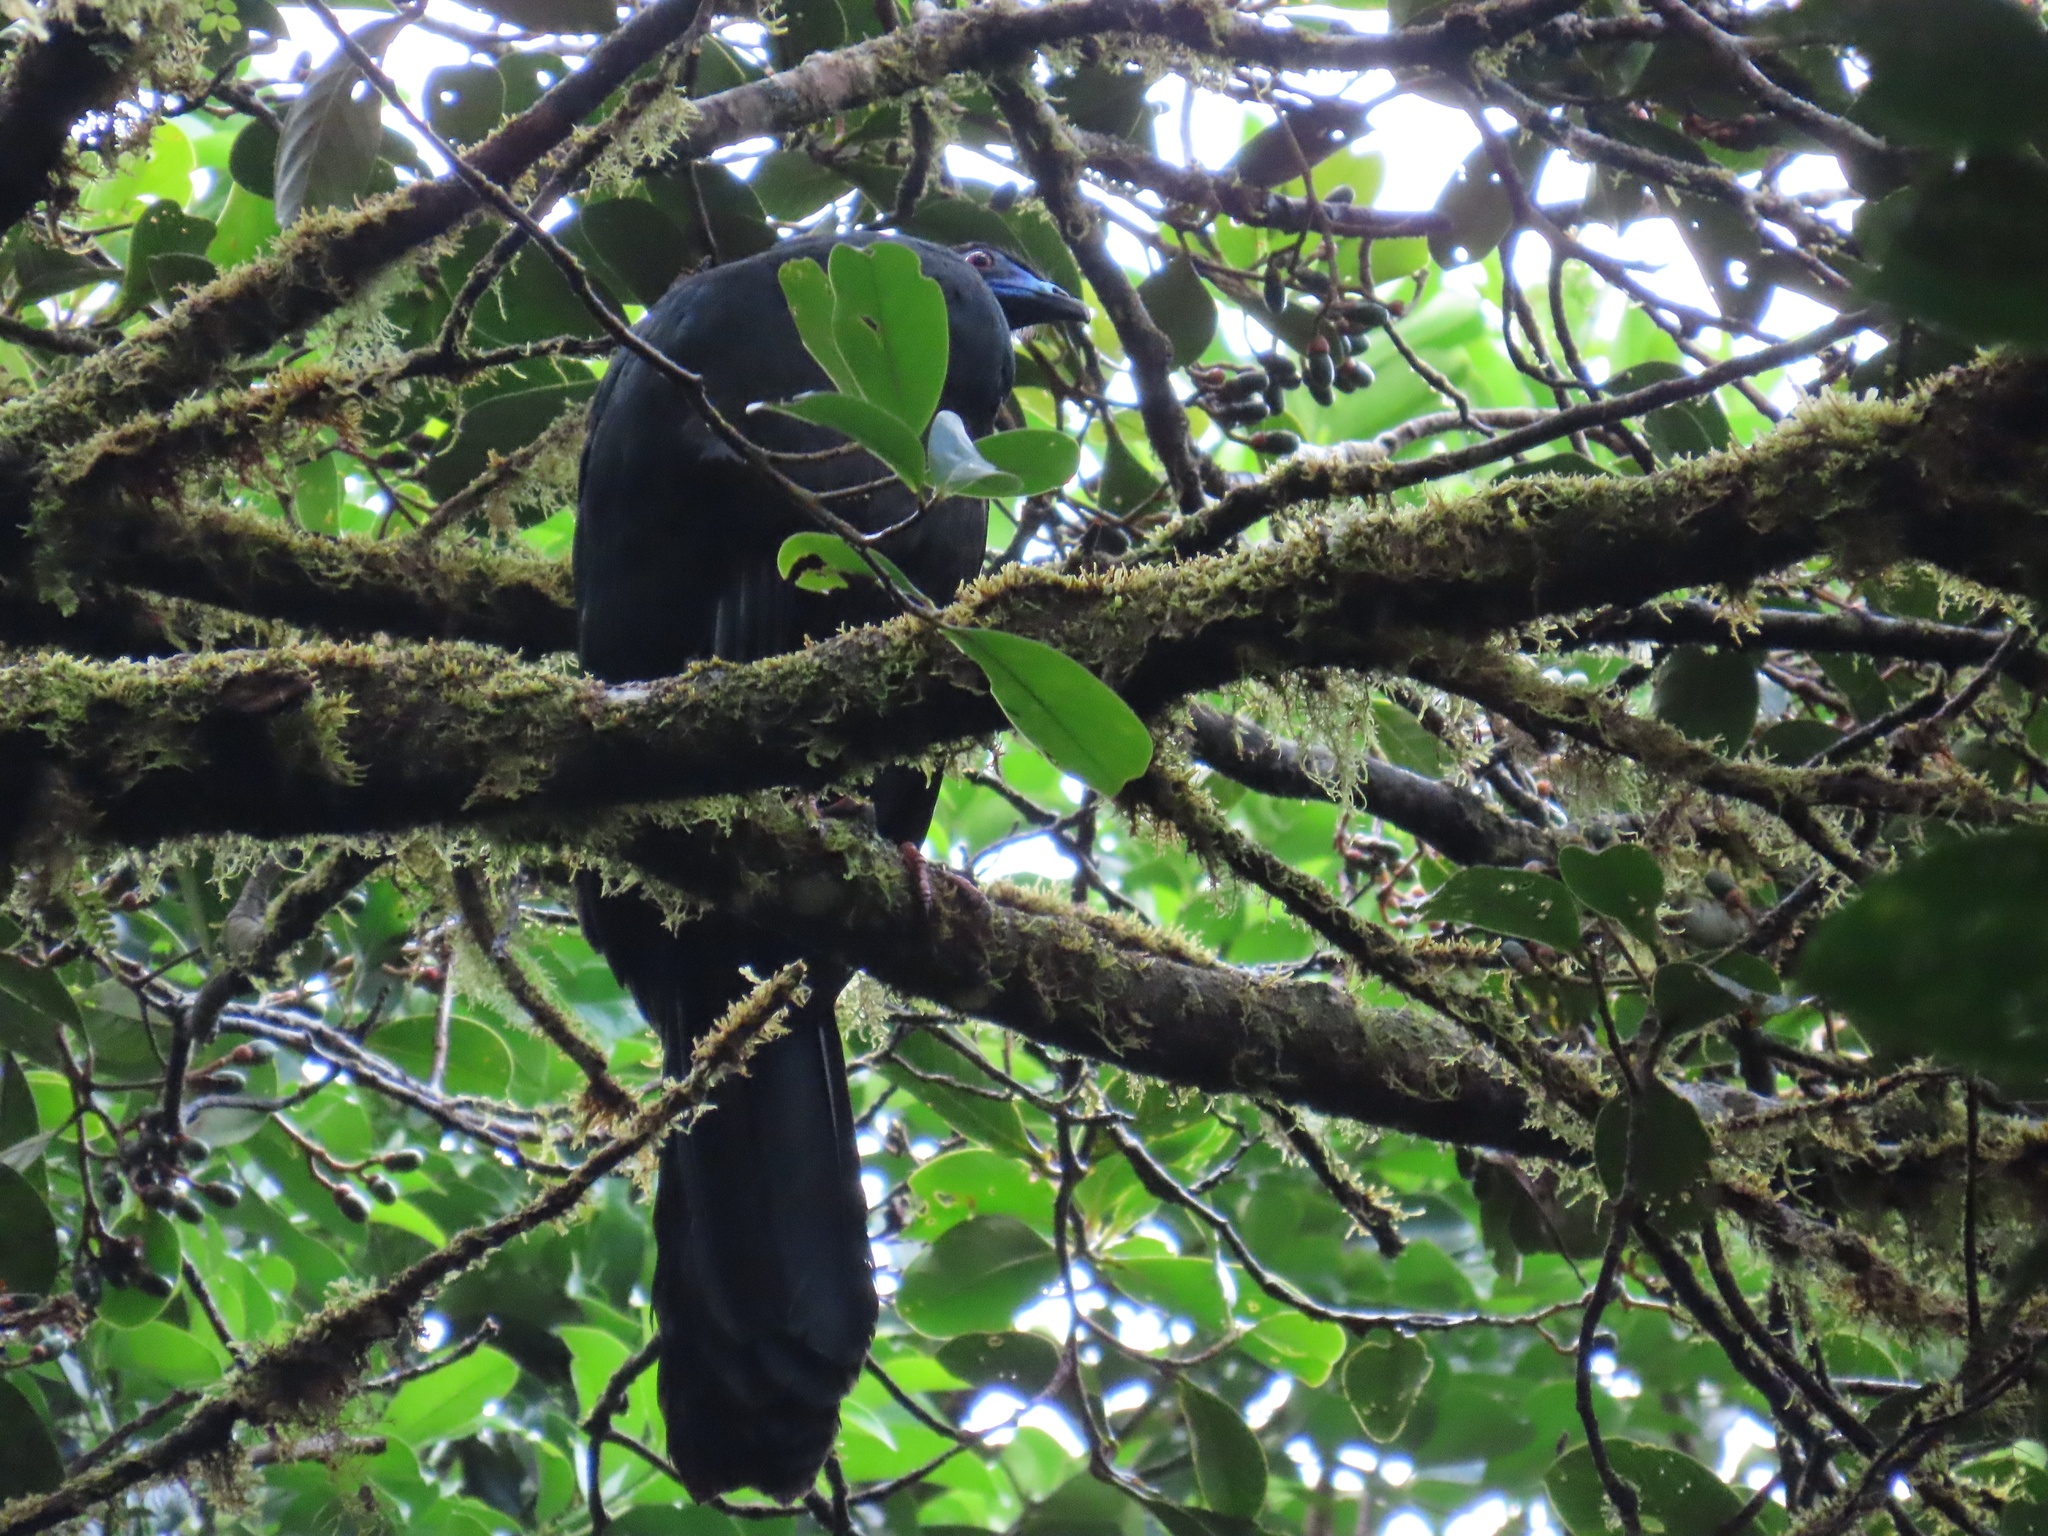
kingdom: Animalia
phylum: Chordata
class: Aves
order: Galliformes
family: Cracidae
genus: Chamaepetes
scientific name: Chamaepetes unicolor
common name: Black guan
